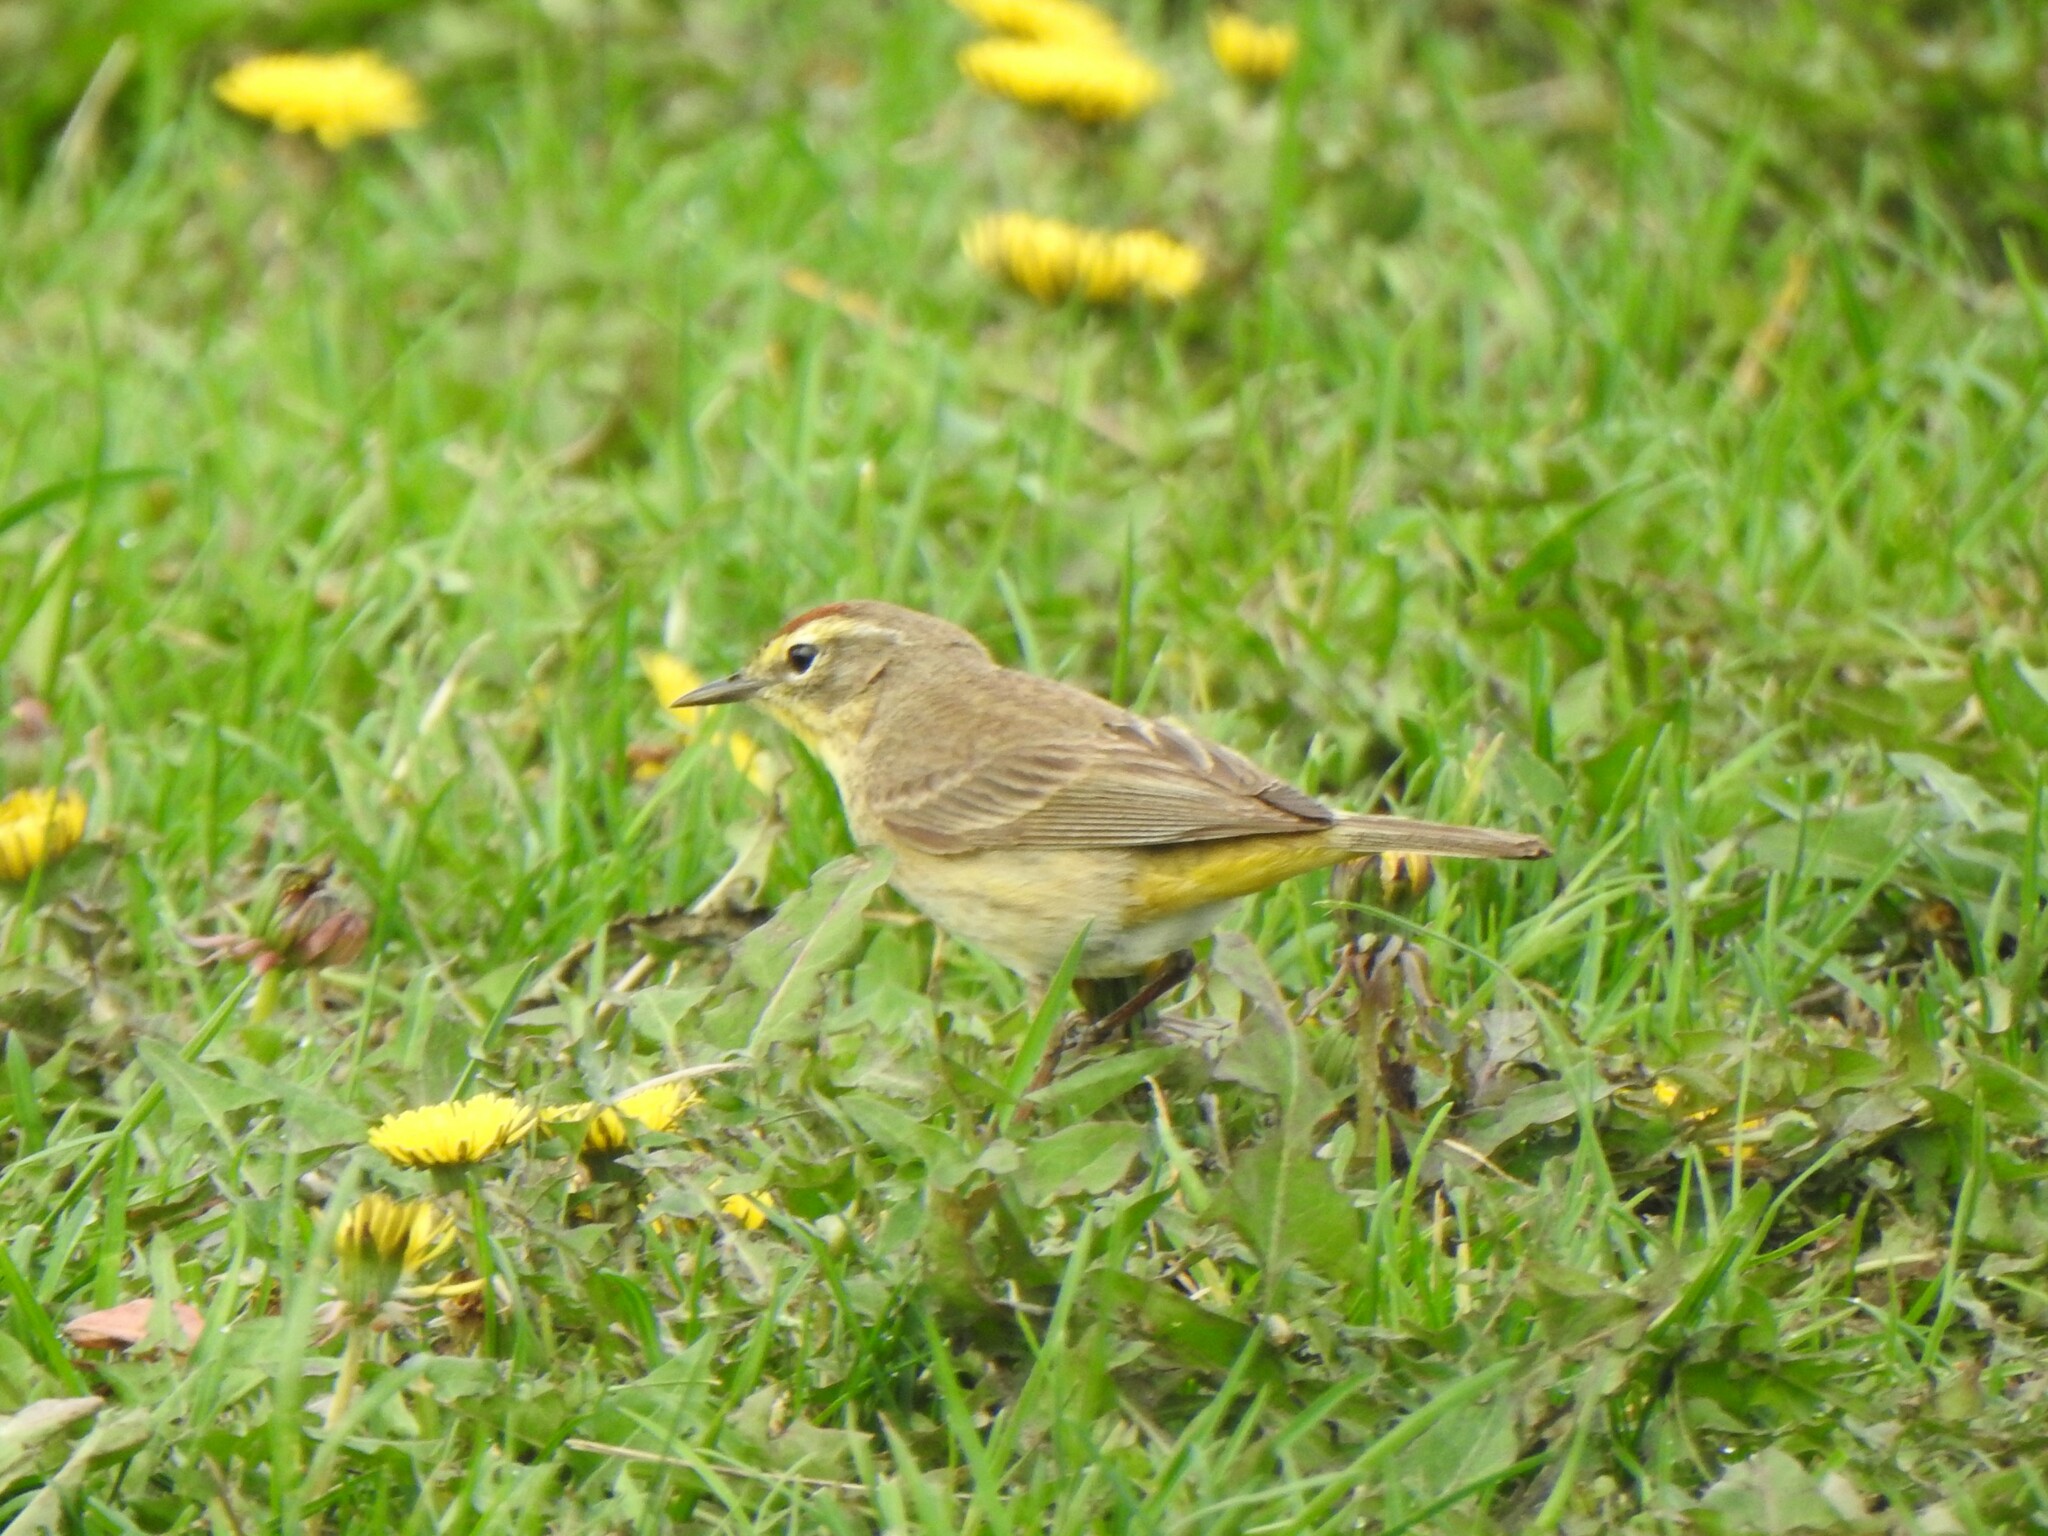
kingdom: Animalia
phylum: Chordata
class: Aves
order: Passeriformes
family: Parulidae
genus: Setophaga
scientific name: Setophaga palmarum
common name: Palm warbler
